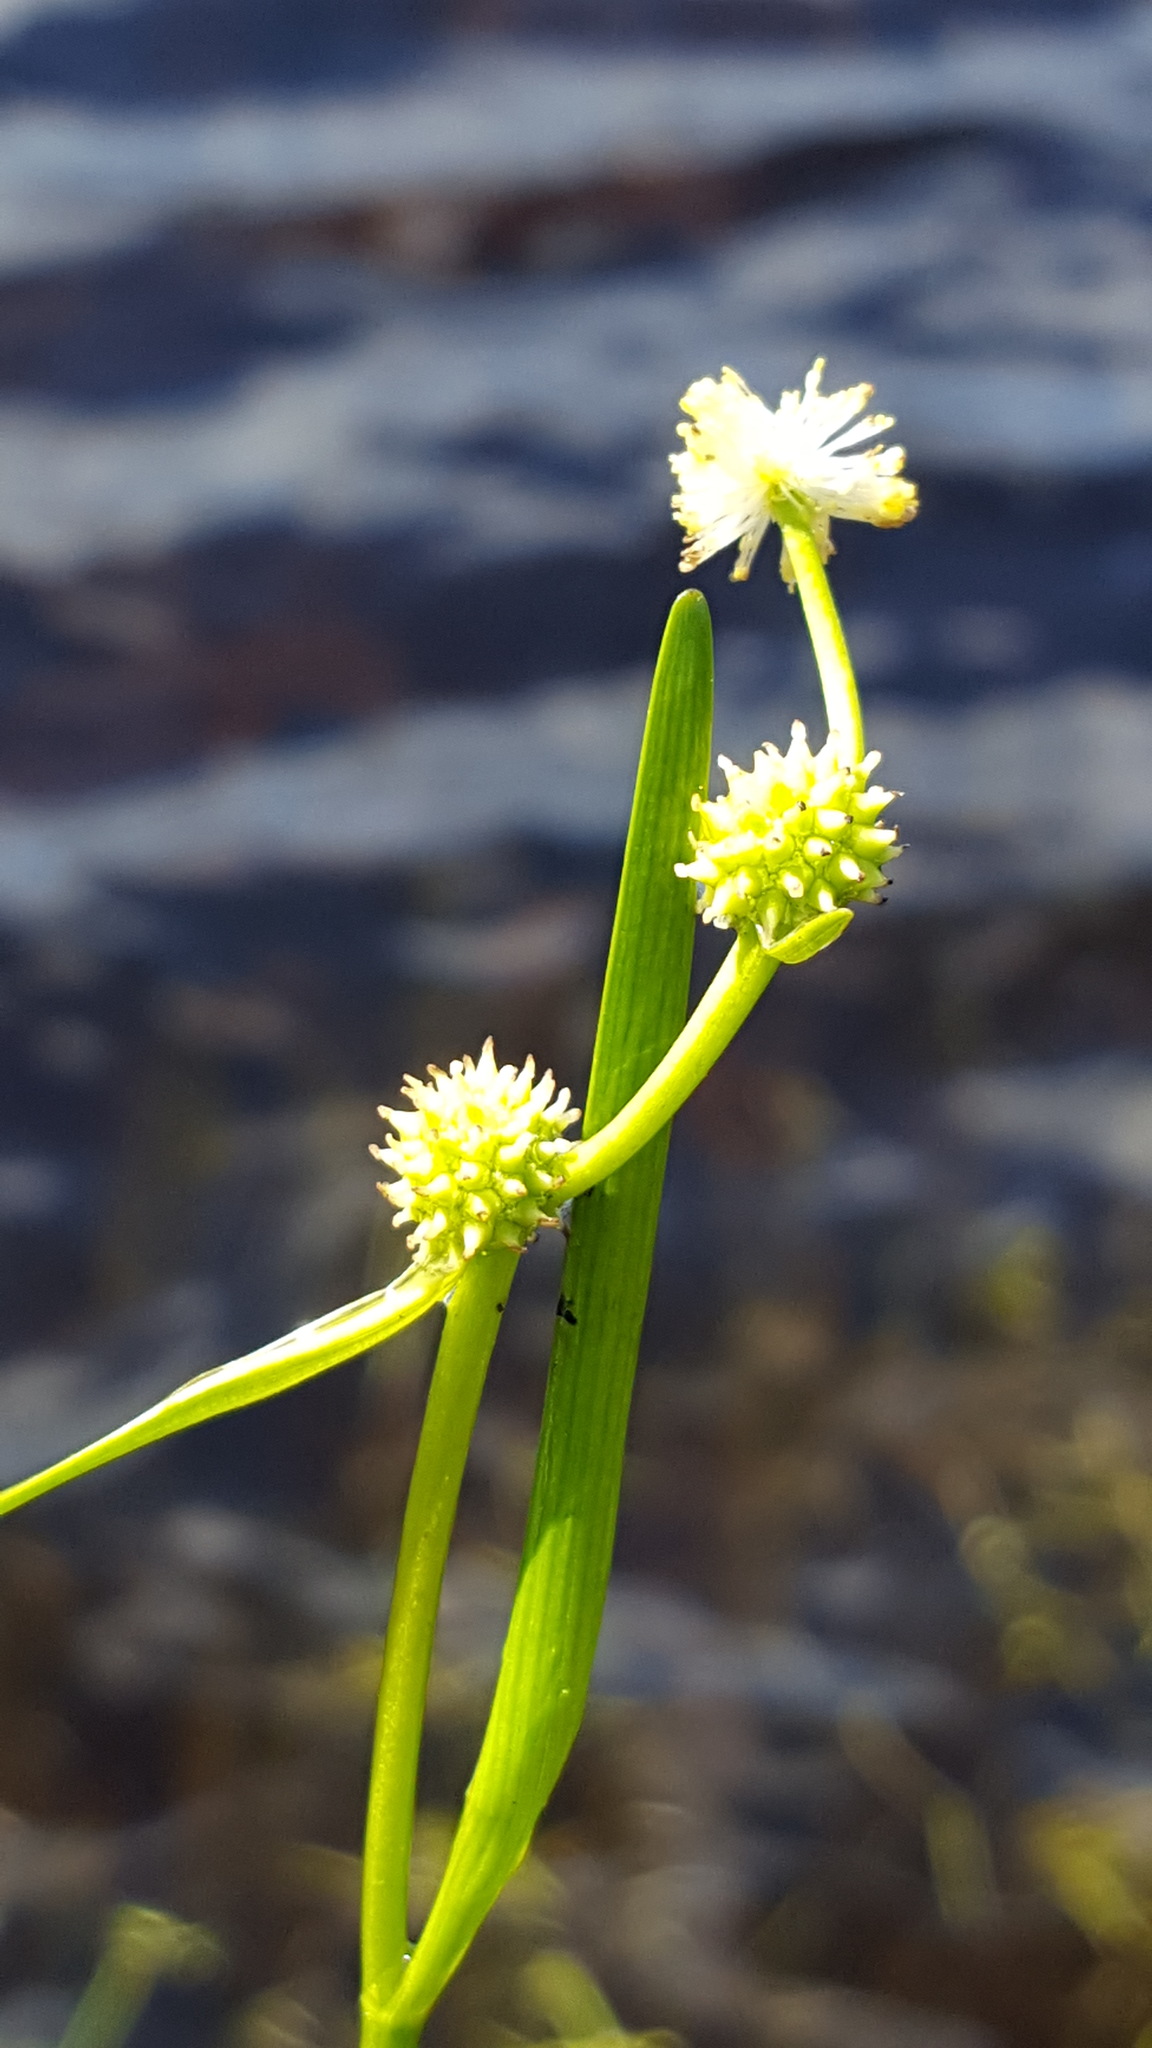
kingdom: Plantae
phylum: Tracheophyta
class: Liliopsida
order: Poales
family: Typhaceae
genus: Sparganium
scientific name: Sparganium natans
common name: Least bur-reed
